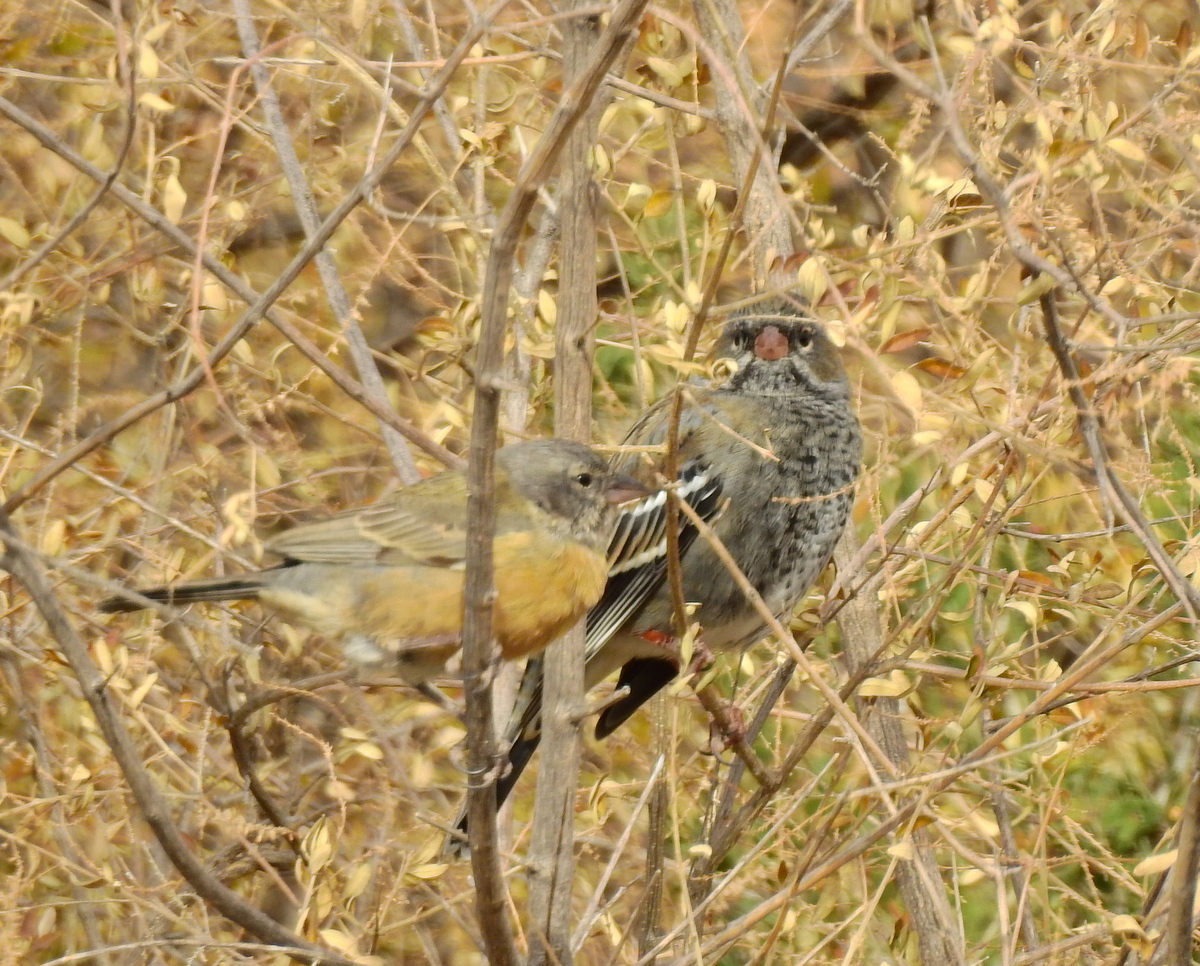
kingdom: Animalia
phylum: Chordata
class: Aves
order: Passeriformes
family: Thraupidae
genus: Rhopospina
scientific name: Rhopospina fruticeti
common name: Mourning sierra finch
